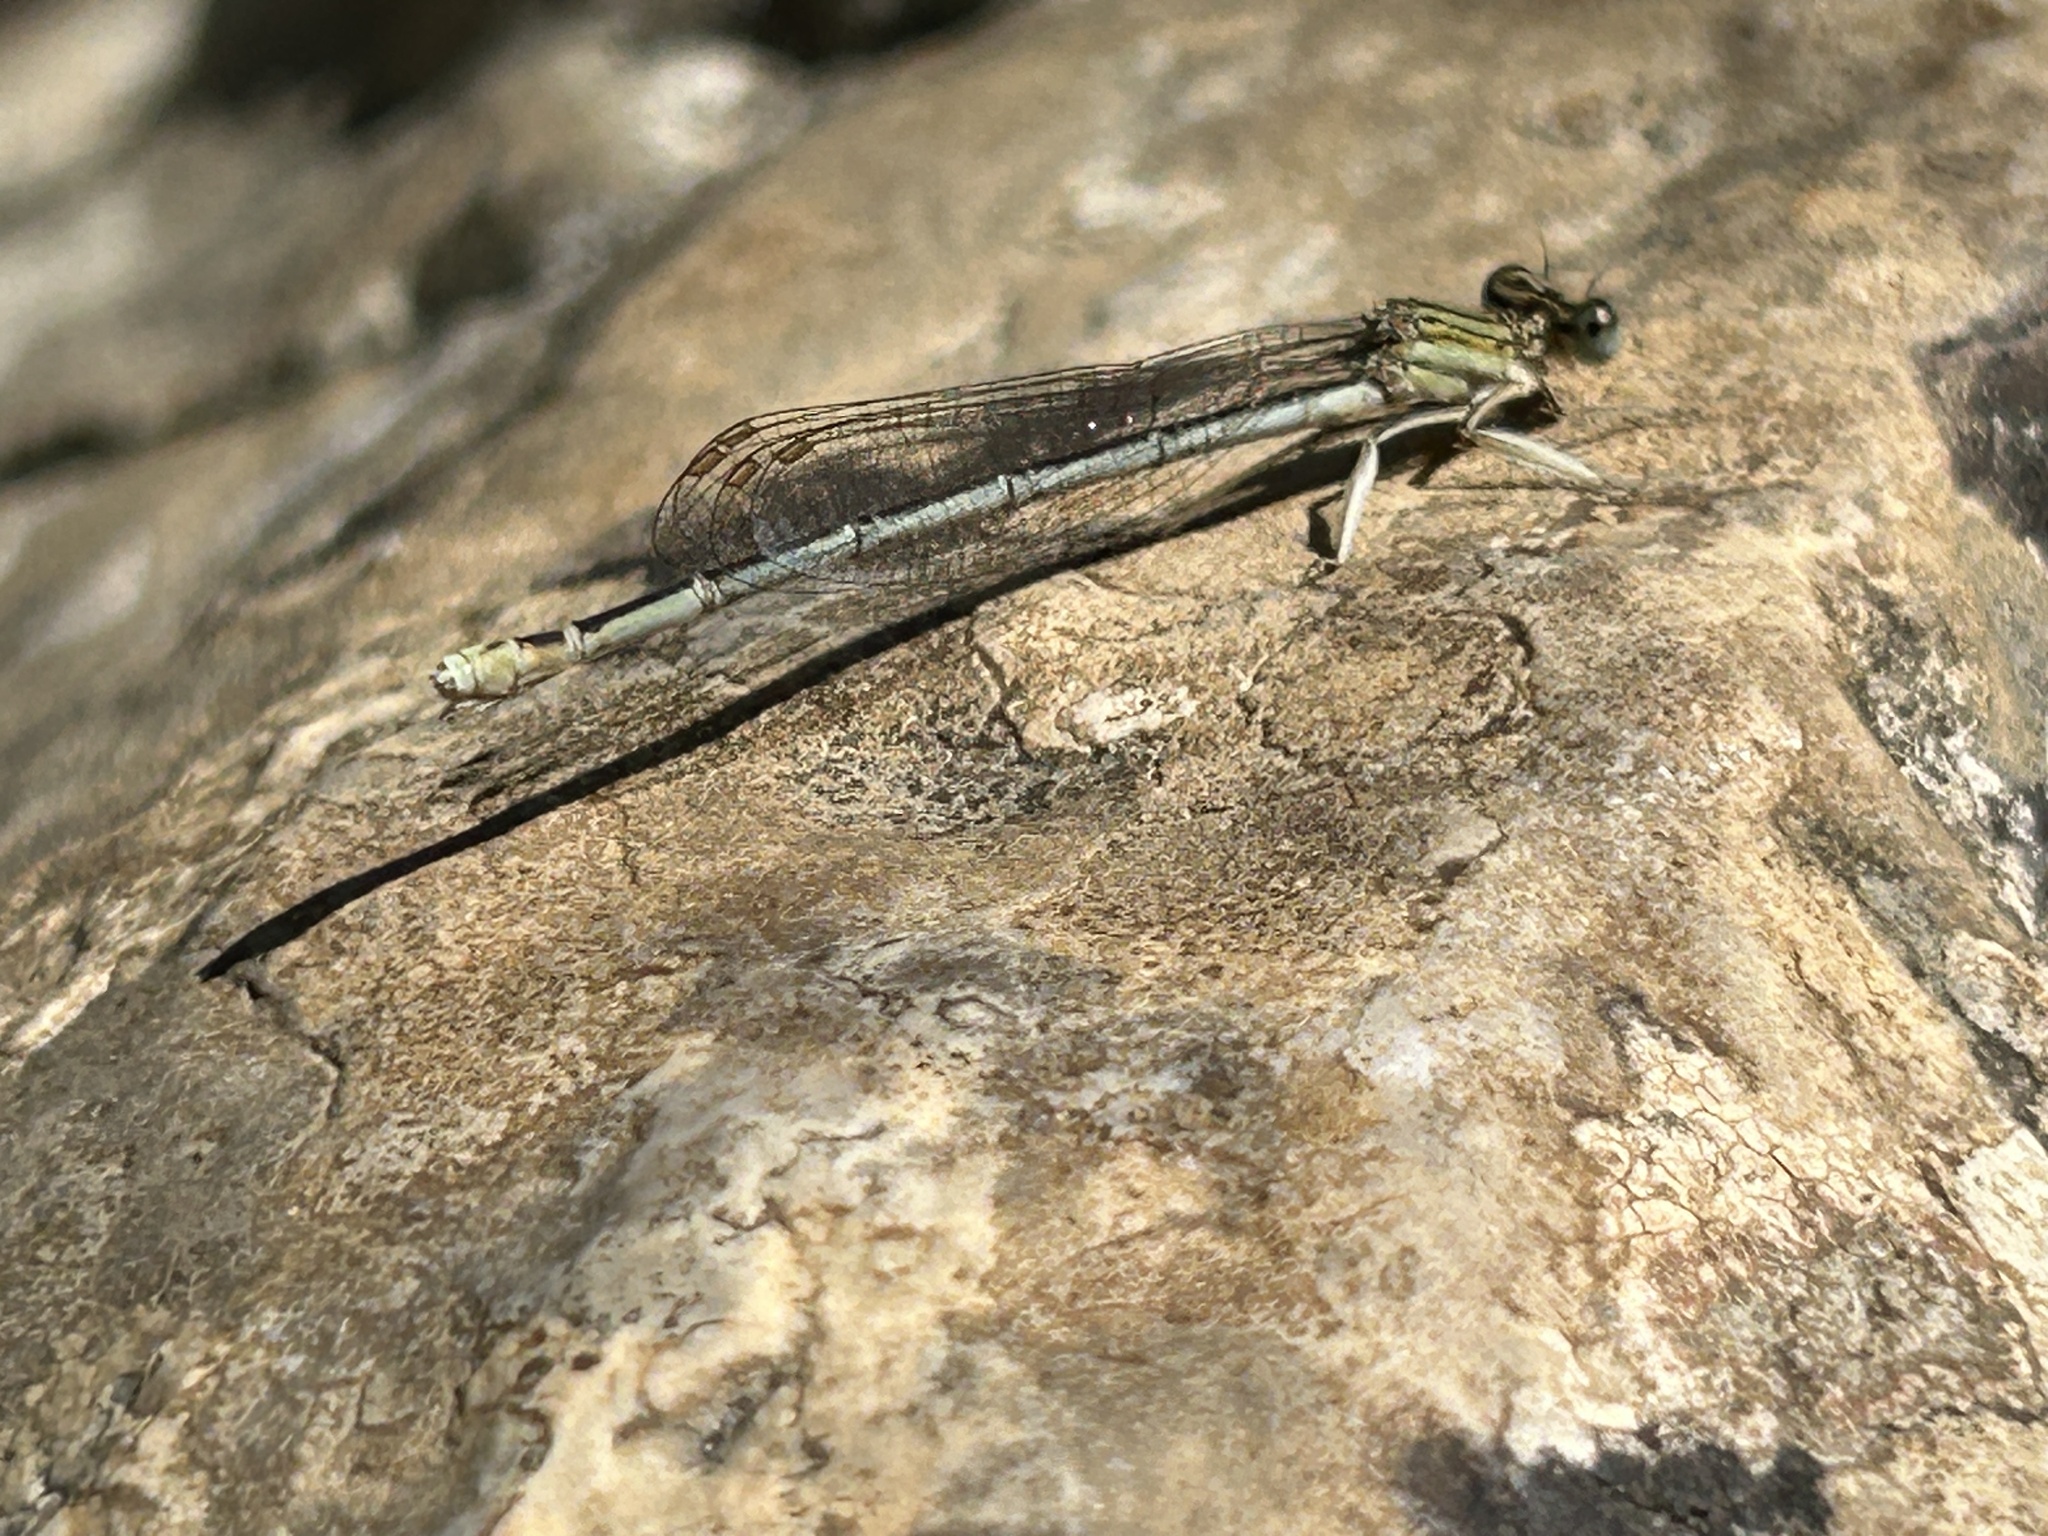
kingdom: Animalia
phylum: Arthropoda
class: Insecta
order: Odonata
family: Platycnemididae
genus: Platycnemis
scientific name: Platycnemis pennipes
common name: White-legged damselfly
